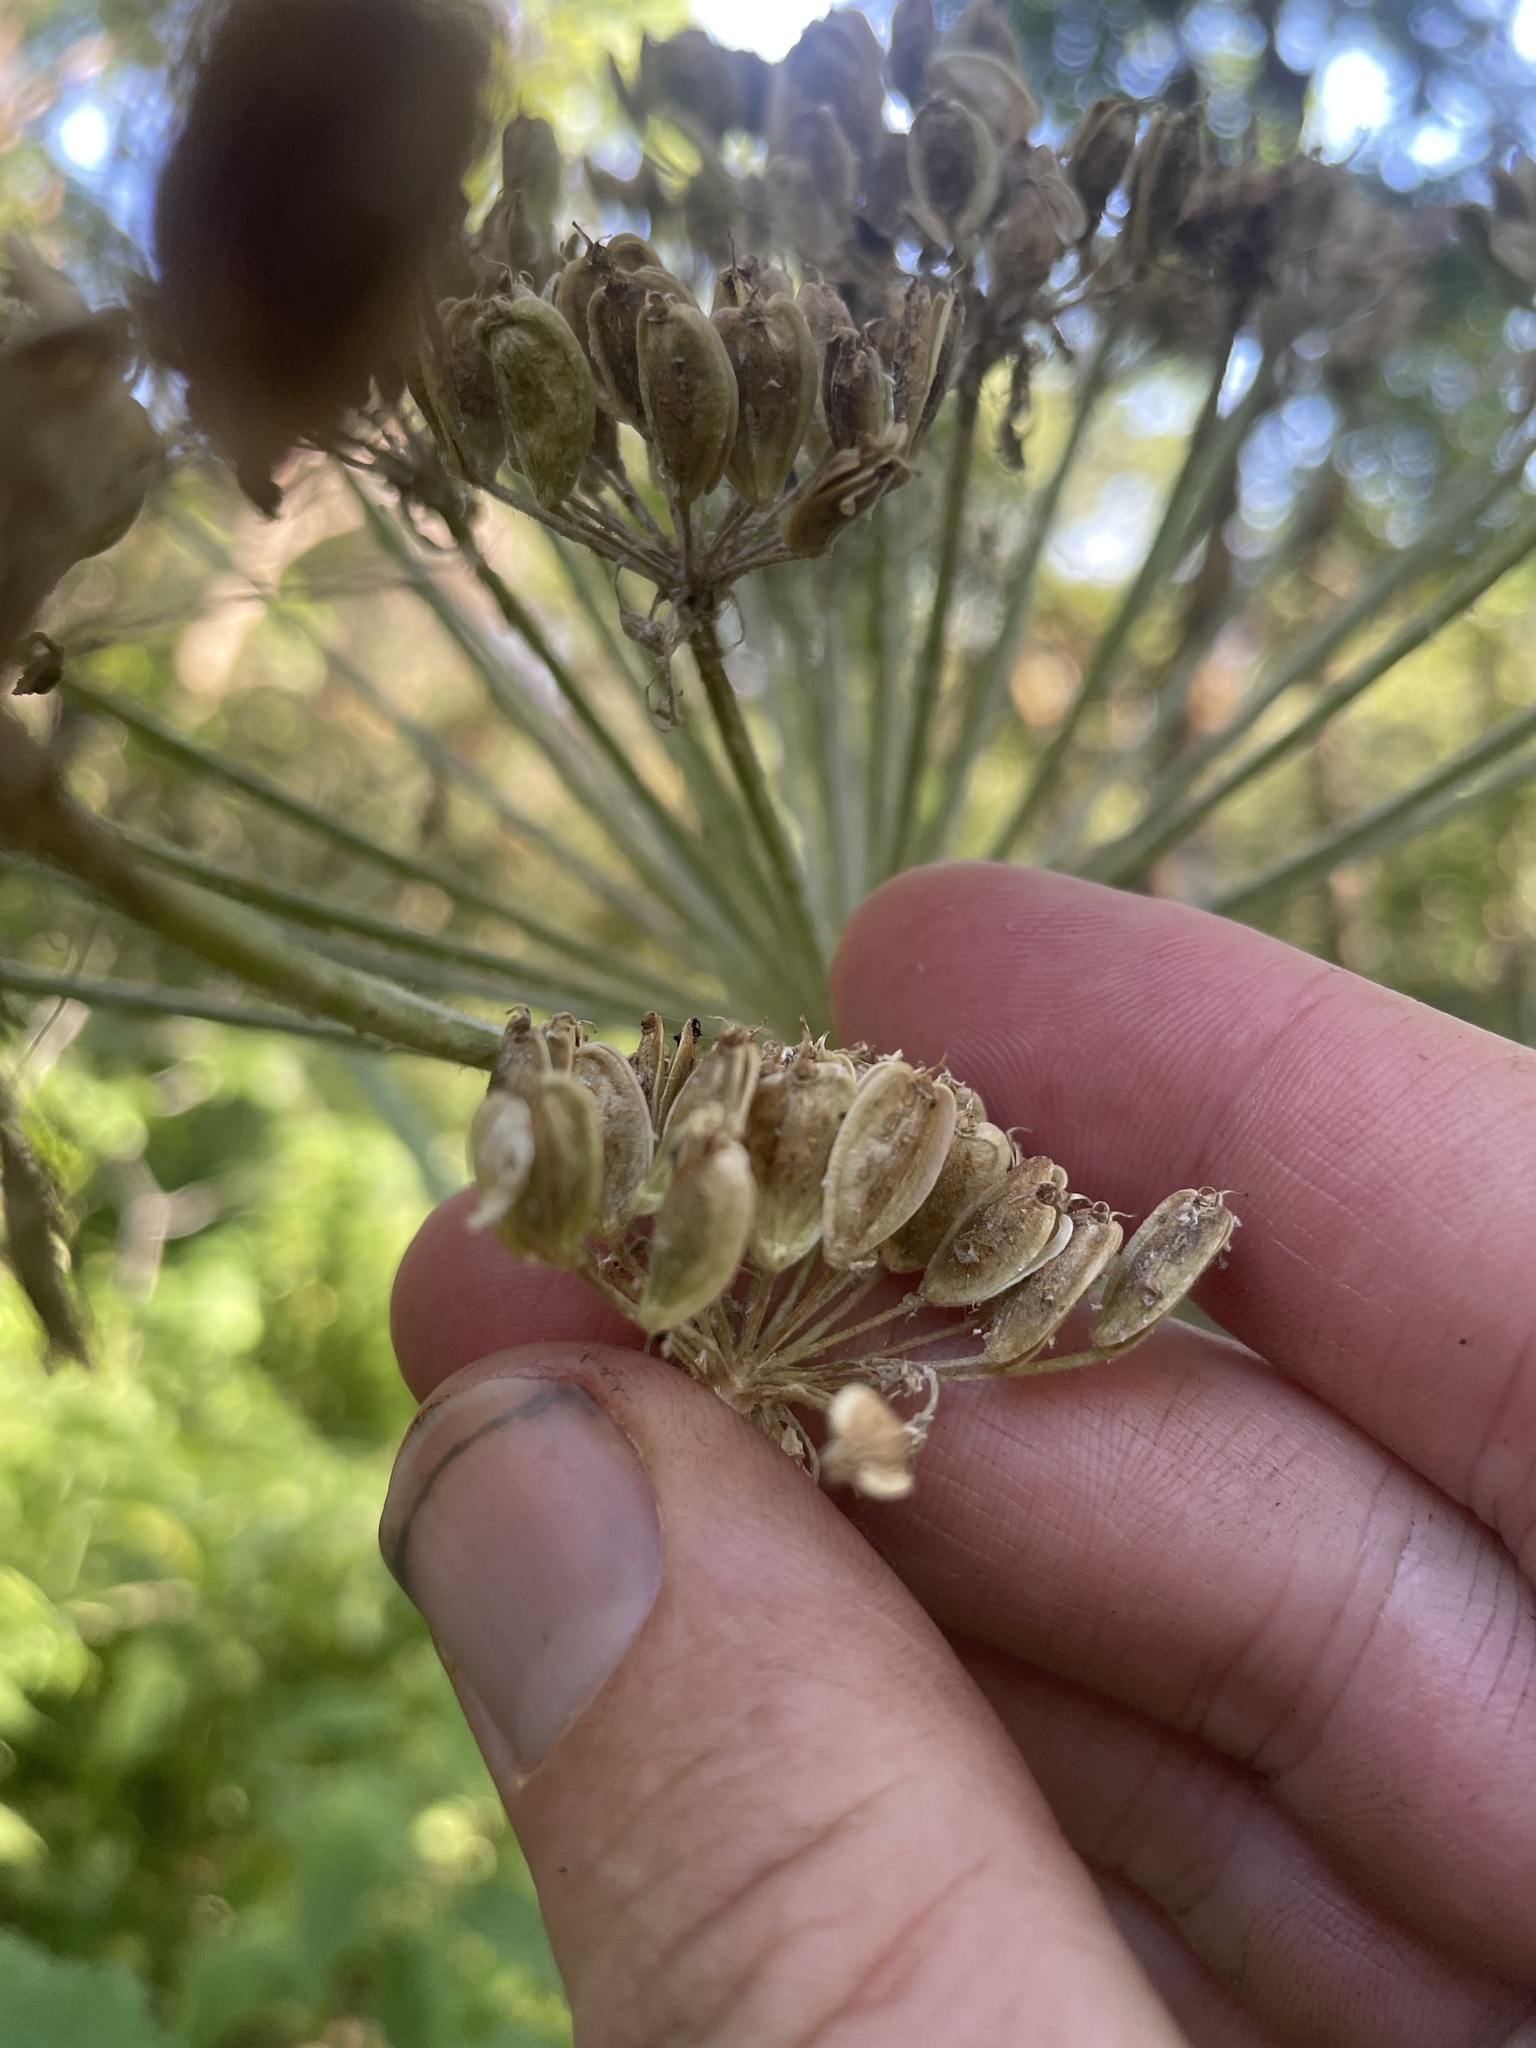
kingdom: Plantae
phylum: Tracheophyta
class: Magnoliopsida
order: Apiales
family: Apiaceae
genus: Heracleum
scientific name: Heracleum maximum
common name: American cow parsnip
